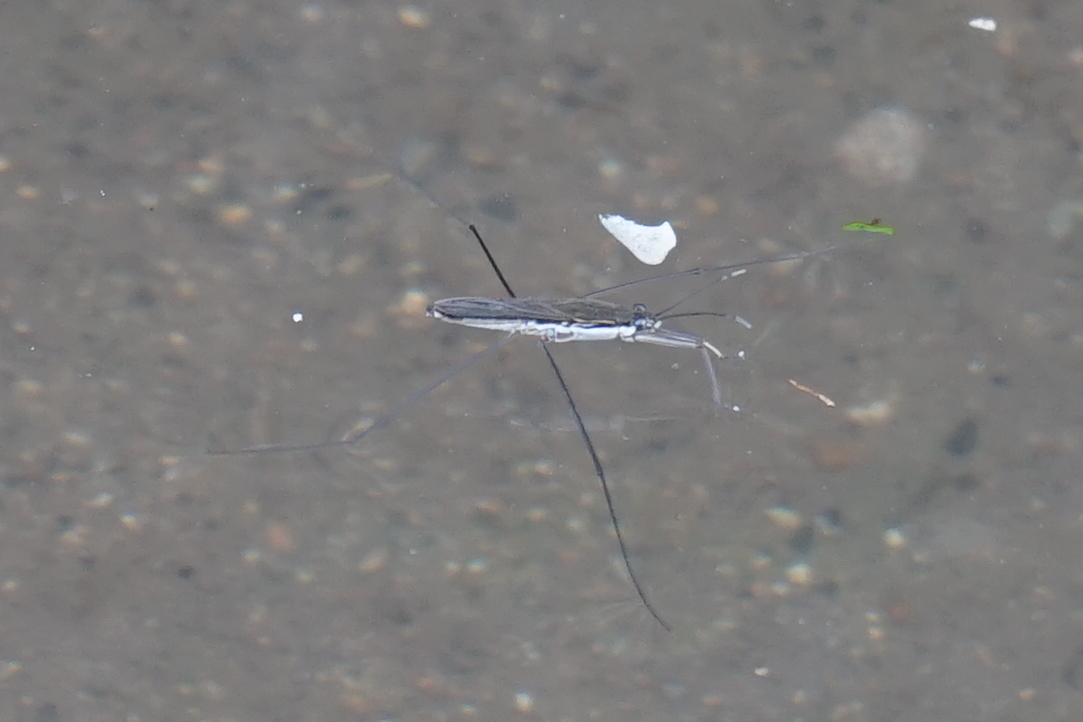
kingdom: Animalia
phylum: Arthropoda
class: Insecta
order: Hemiptera
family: Gerridae
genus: Aquarius
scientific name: Aquarius paludum
